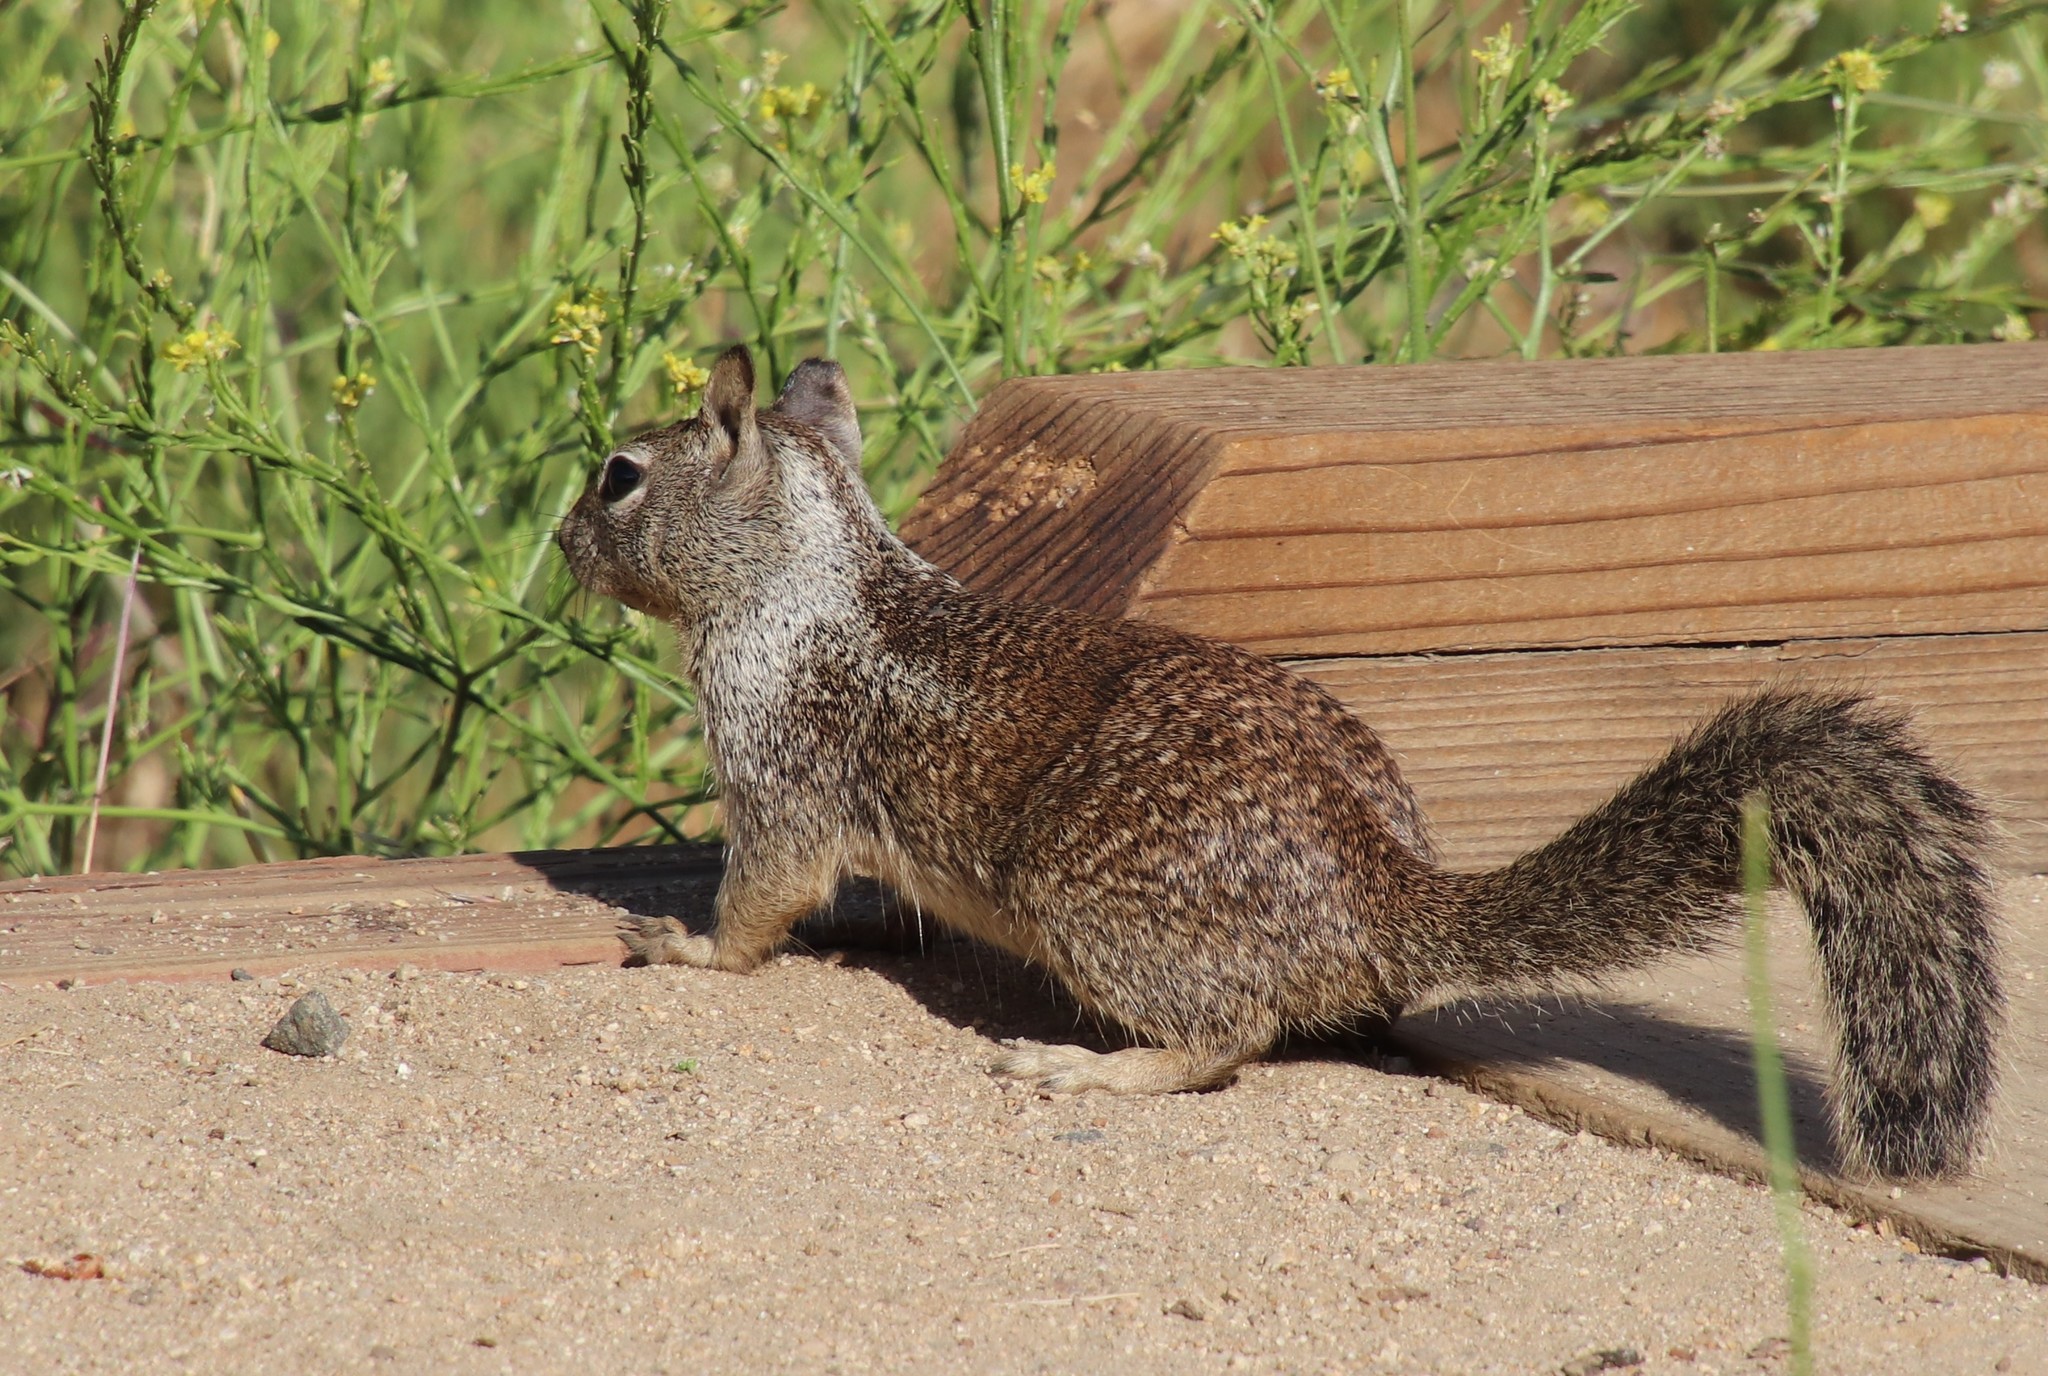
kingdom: Animalia
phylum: Chordata
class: Mammalia
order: Rodentia
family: Sciuridae
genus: Otospermophilus
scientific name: Otospermophilus beecheyi
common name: California ground squirrel
